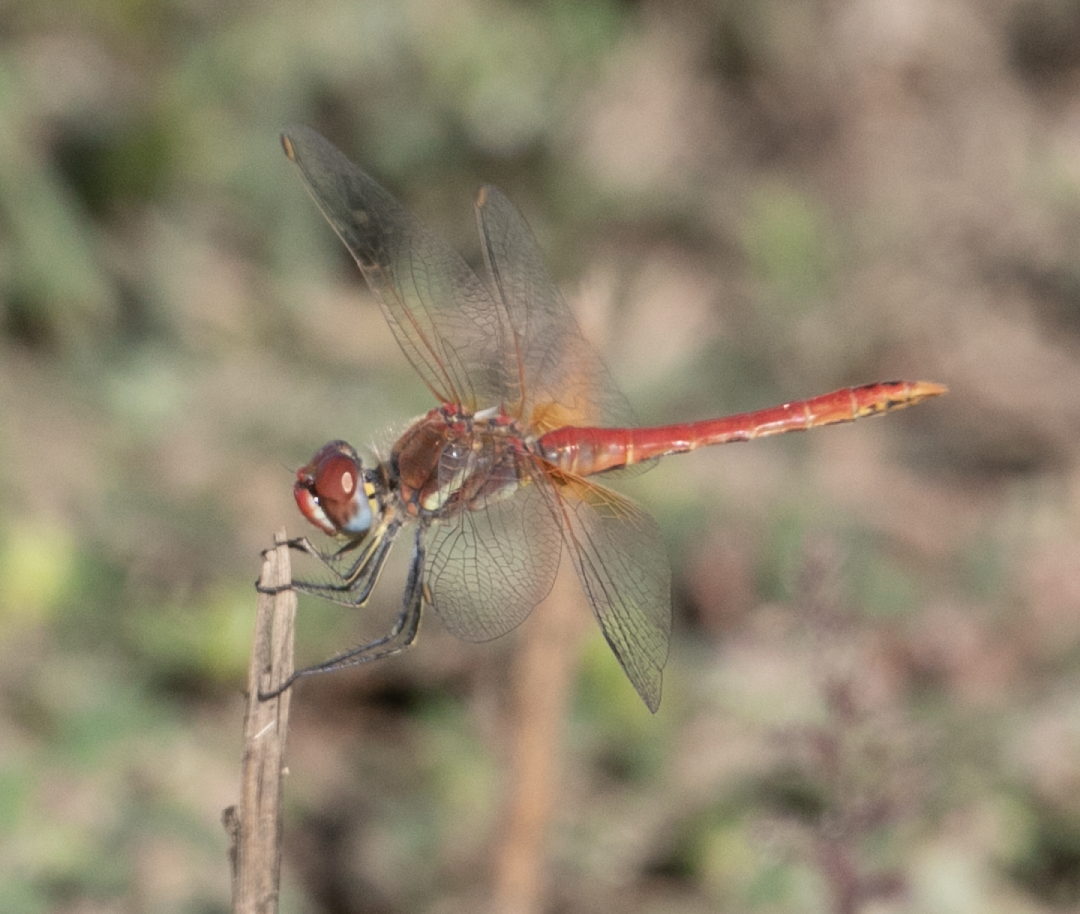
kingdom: Animalia
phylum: Arthropoda
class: Insecta
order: Odonata
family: Libellulidae
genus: Sympetrum
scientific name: Sympetrum fonscolombii
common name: Red-veined darter
